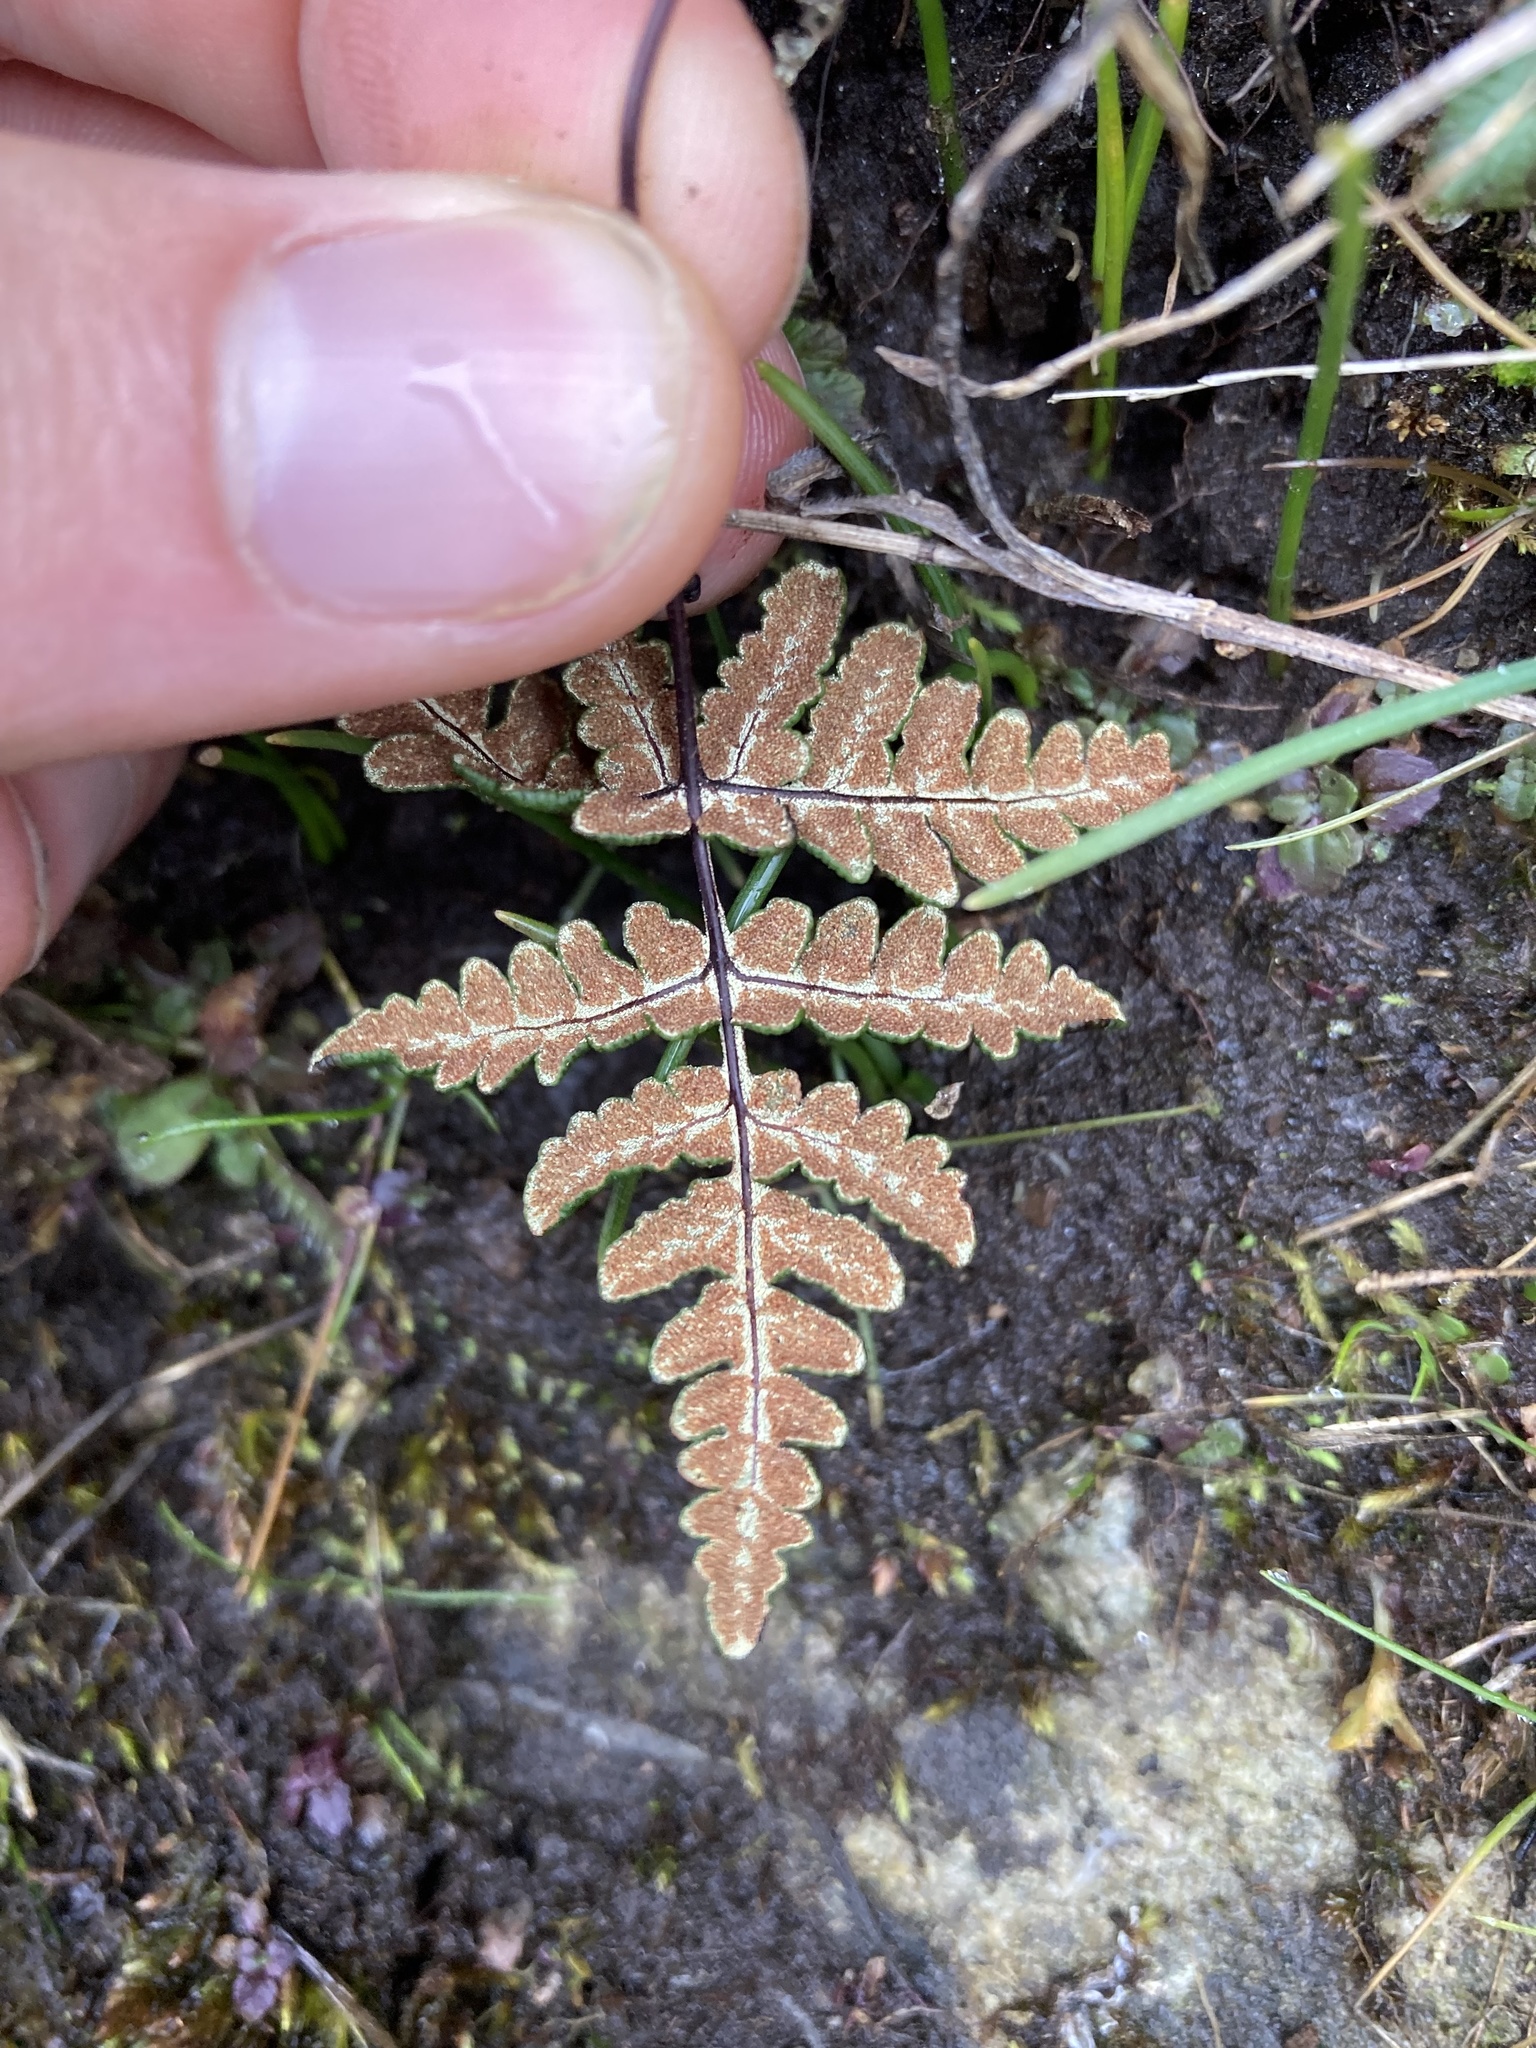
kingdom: Plantae
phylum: Tracheophyta
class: Polypodiopsida
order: Polypodiales
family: Pteridaceae
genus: Pentagramma
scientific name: Pentagramma triangularis
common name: Gold fern
